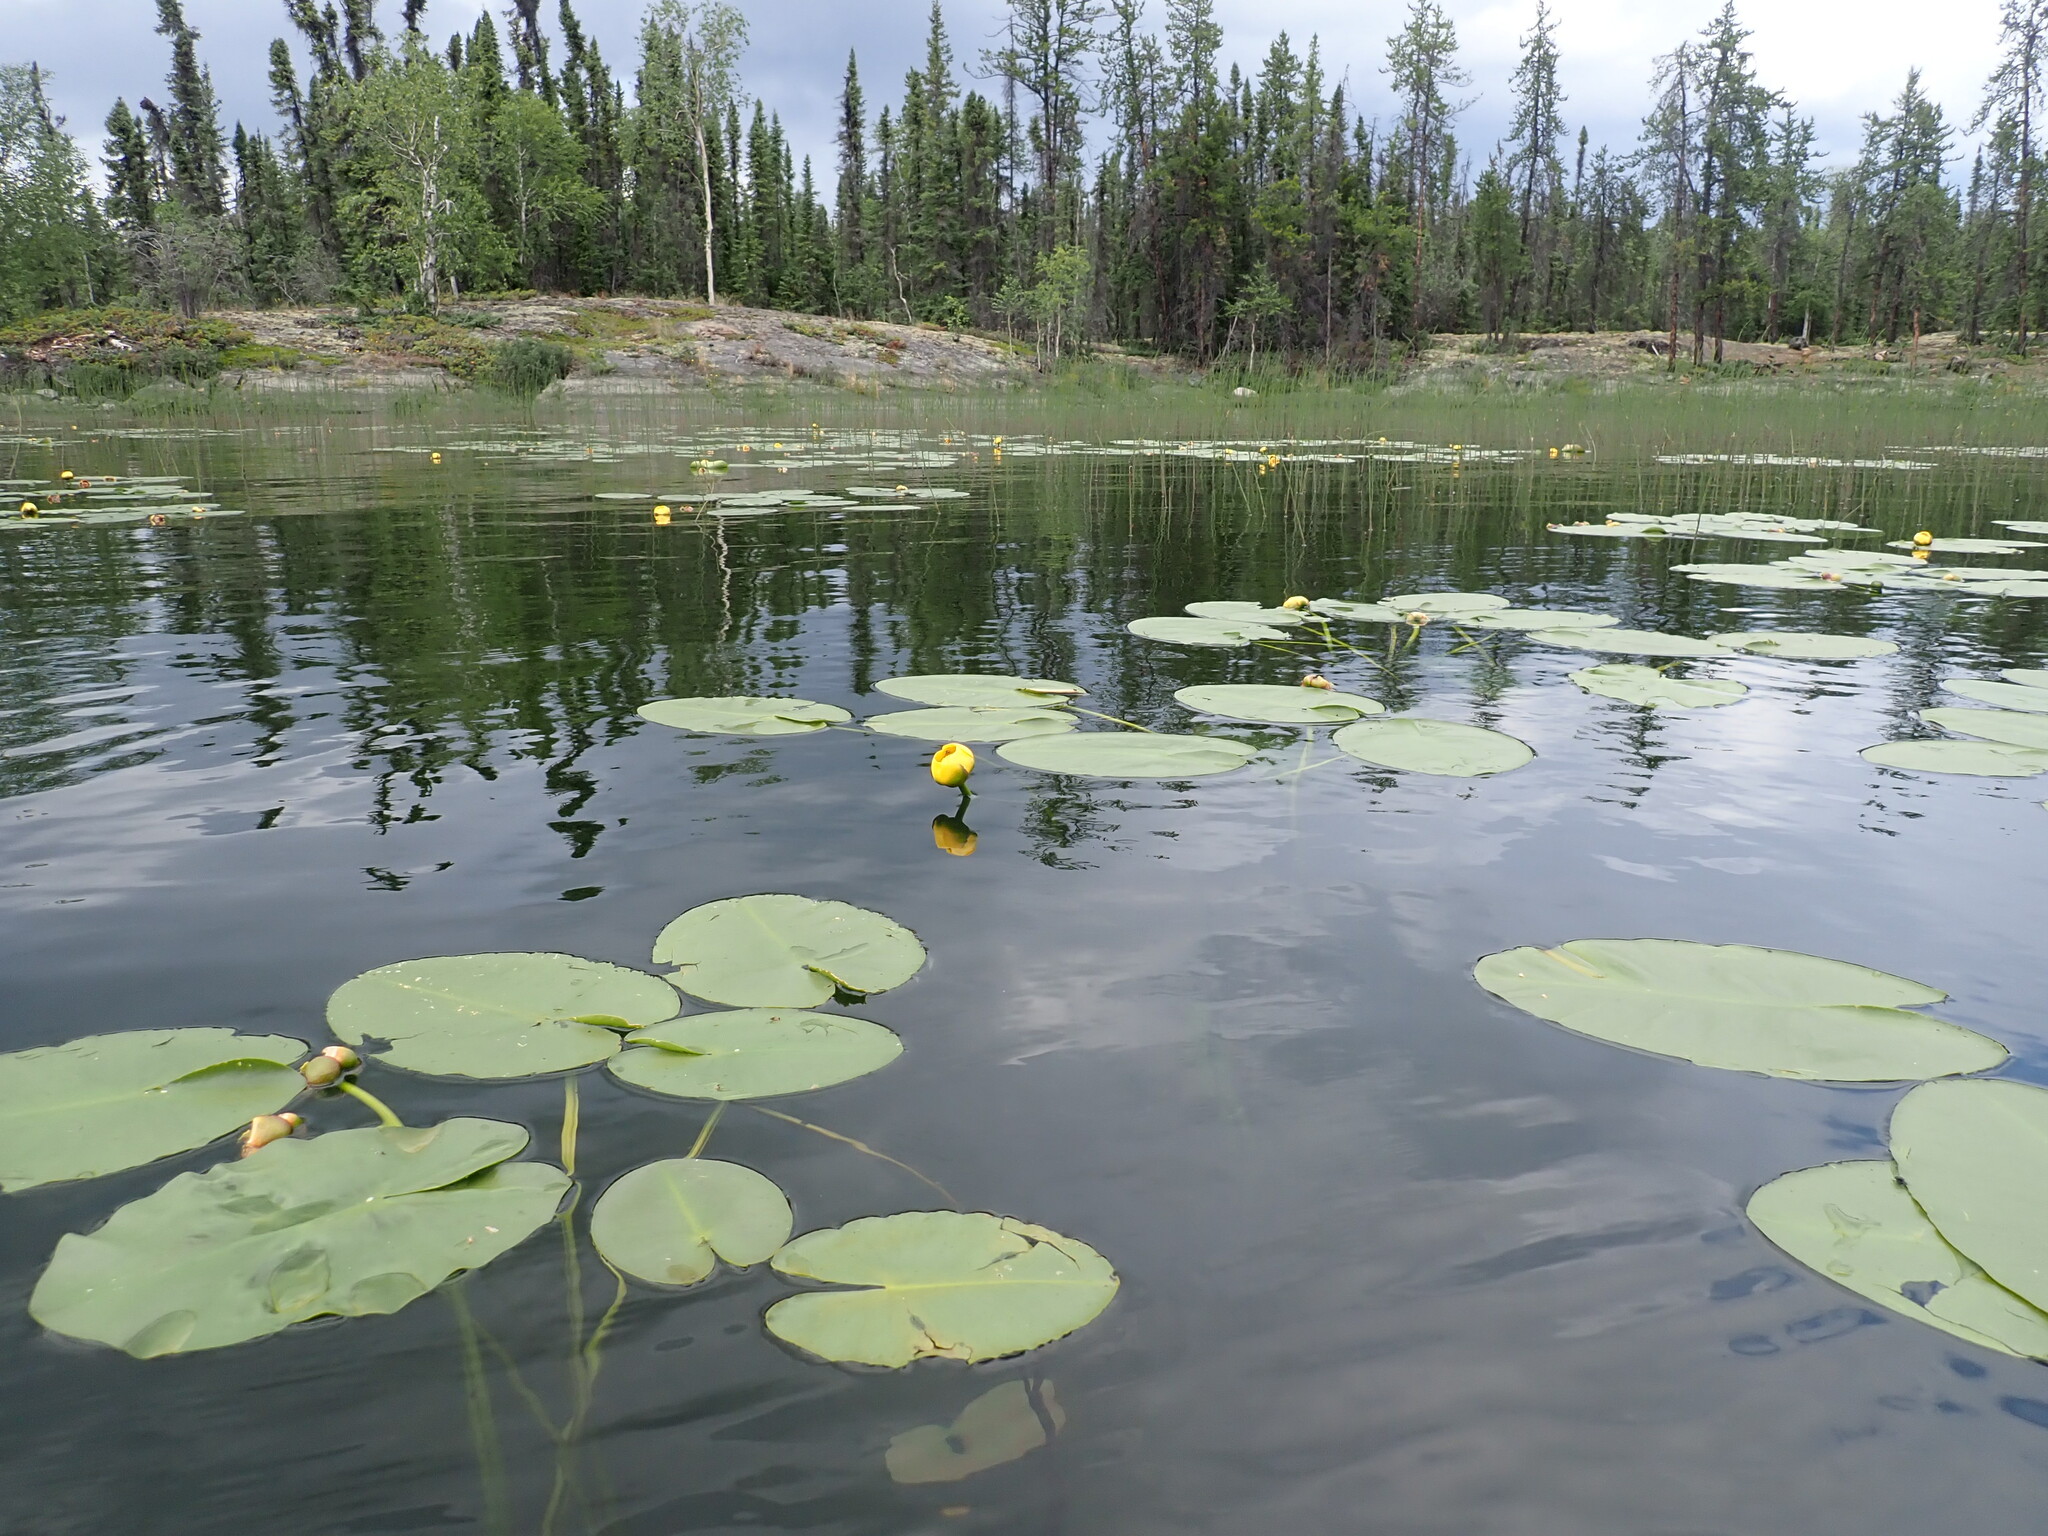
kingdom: Plantae
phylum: Tracheophyta
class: Magnoliopsida
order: Nymphaeales
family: Nymphaeaceae
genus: Nuphar
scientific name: Nuphar variegata
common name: Beaver-root
